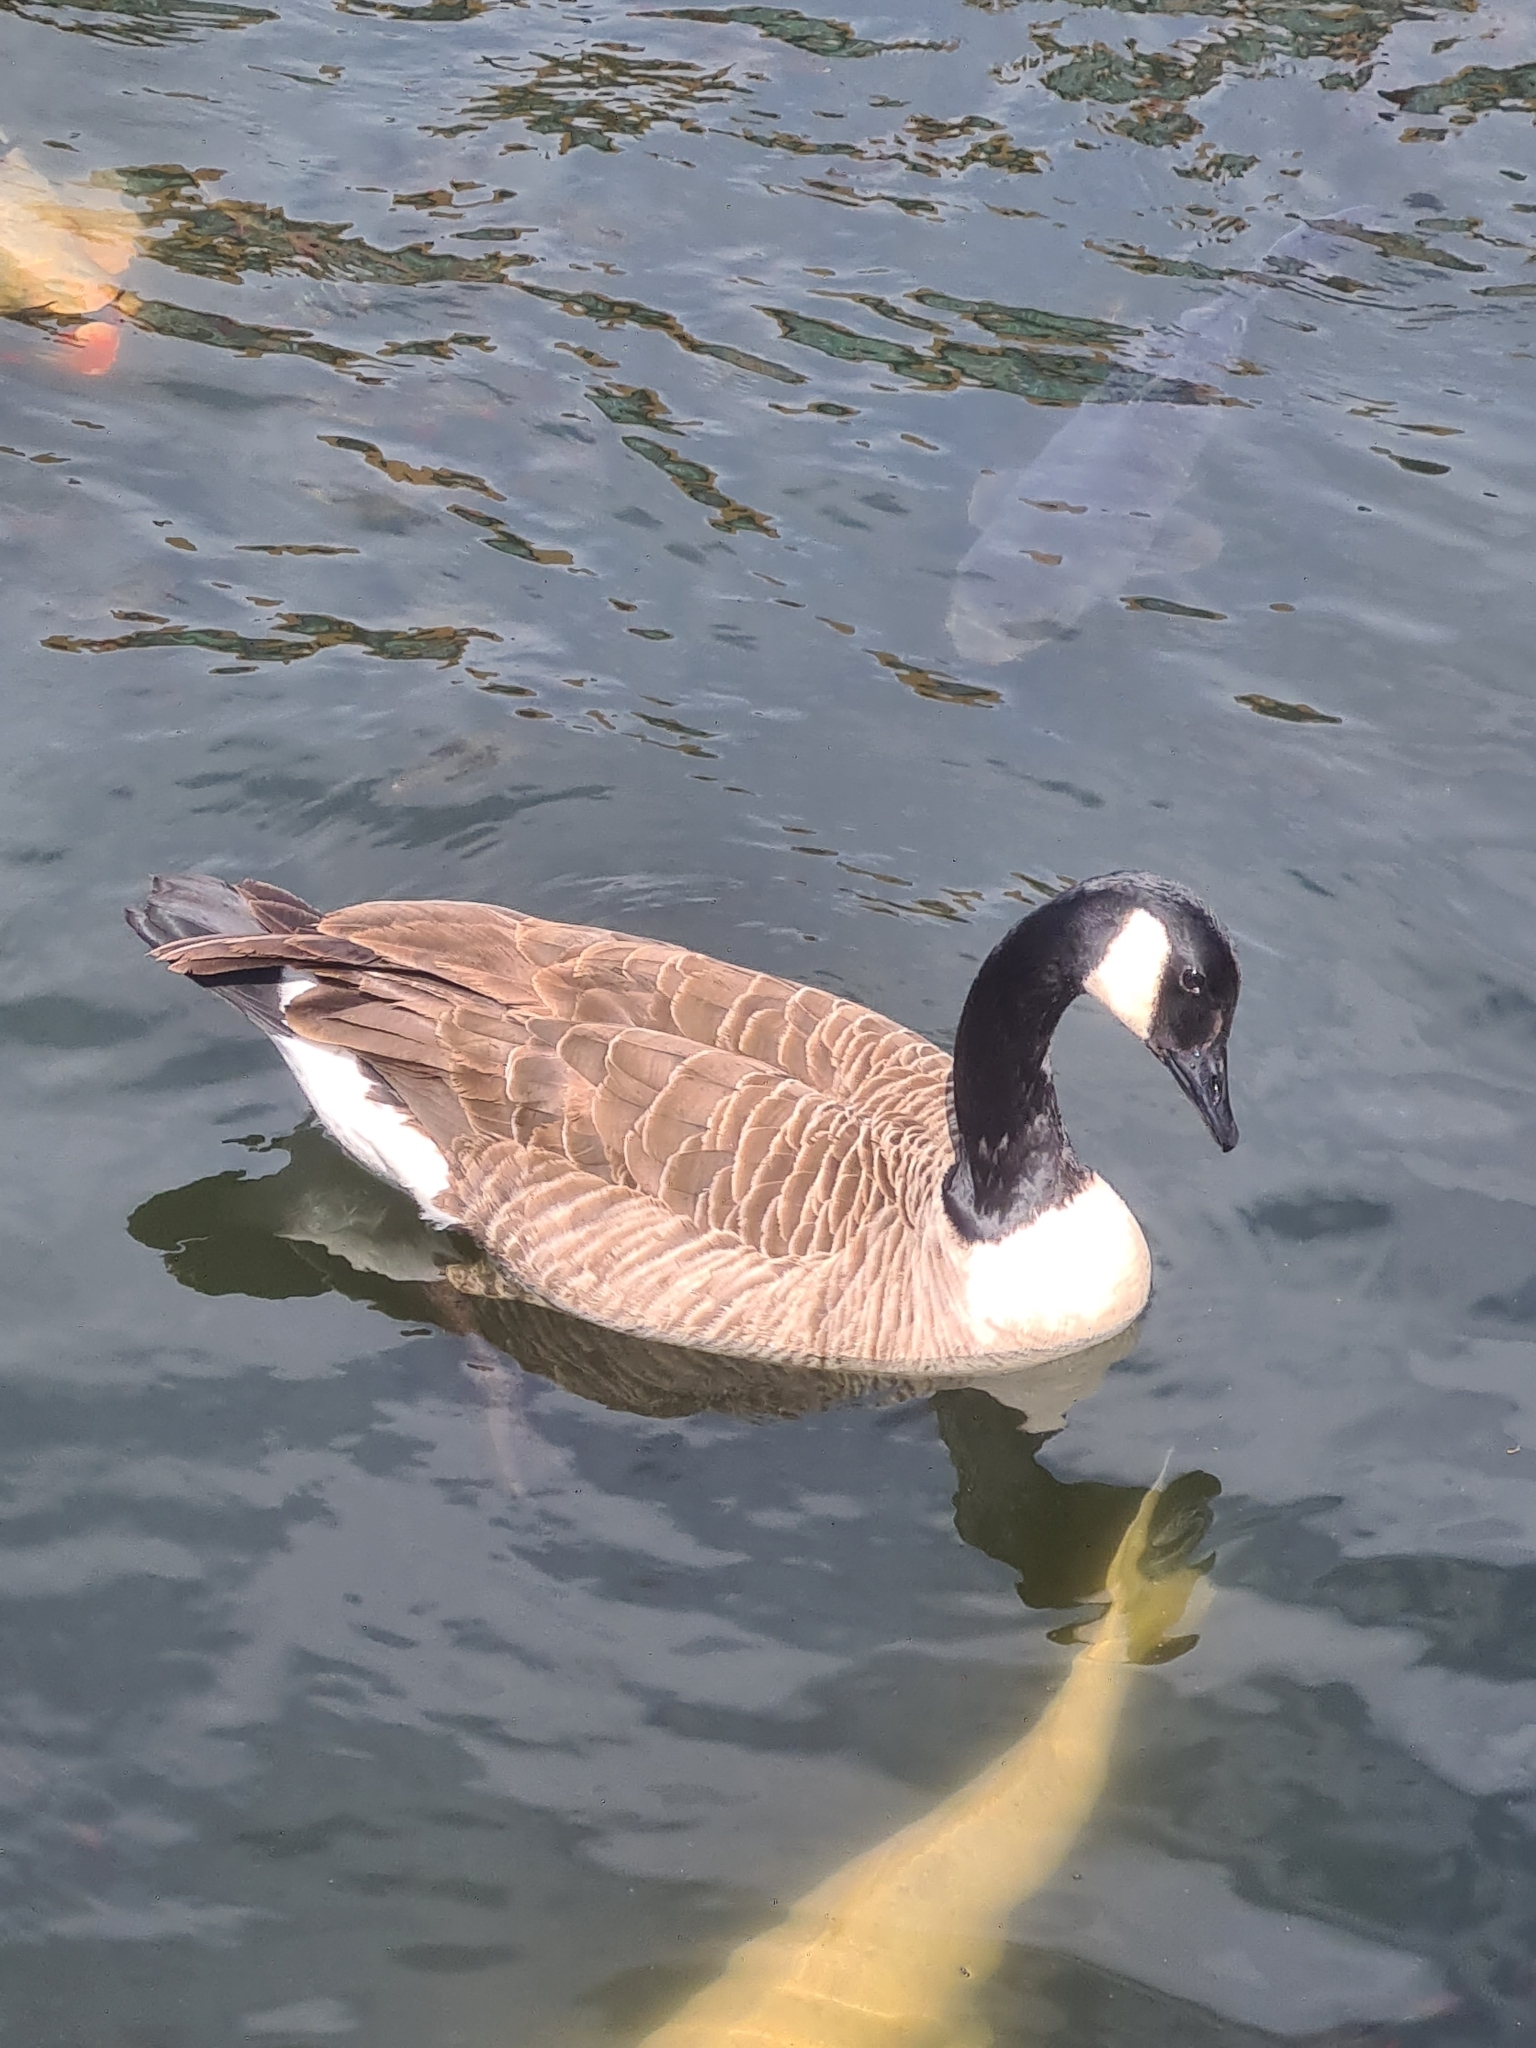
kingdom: Animalia
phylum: Chordata
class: Aves
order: Anseriformes
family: Anatidae
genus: Branta
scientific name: Branta canadensis
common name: Canada goose
